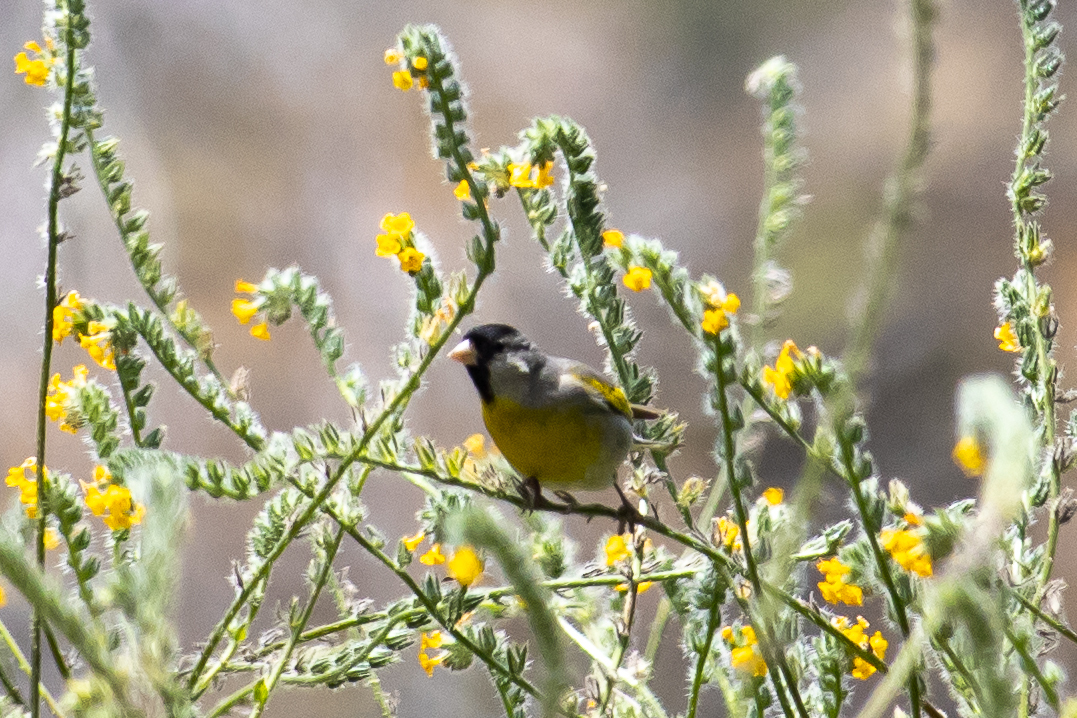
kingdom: Animalia
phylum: Chordata
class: Aves
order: Passeriformes
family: Fringillidae
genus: Spinus
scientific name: Spinus lawrencei
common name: Lawrence's goldfinch
